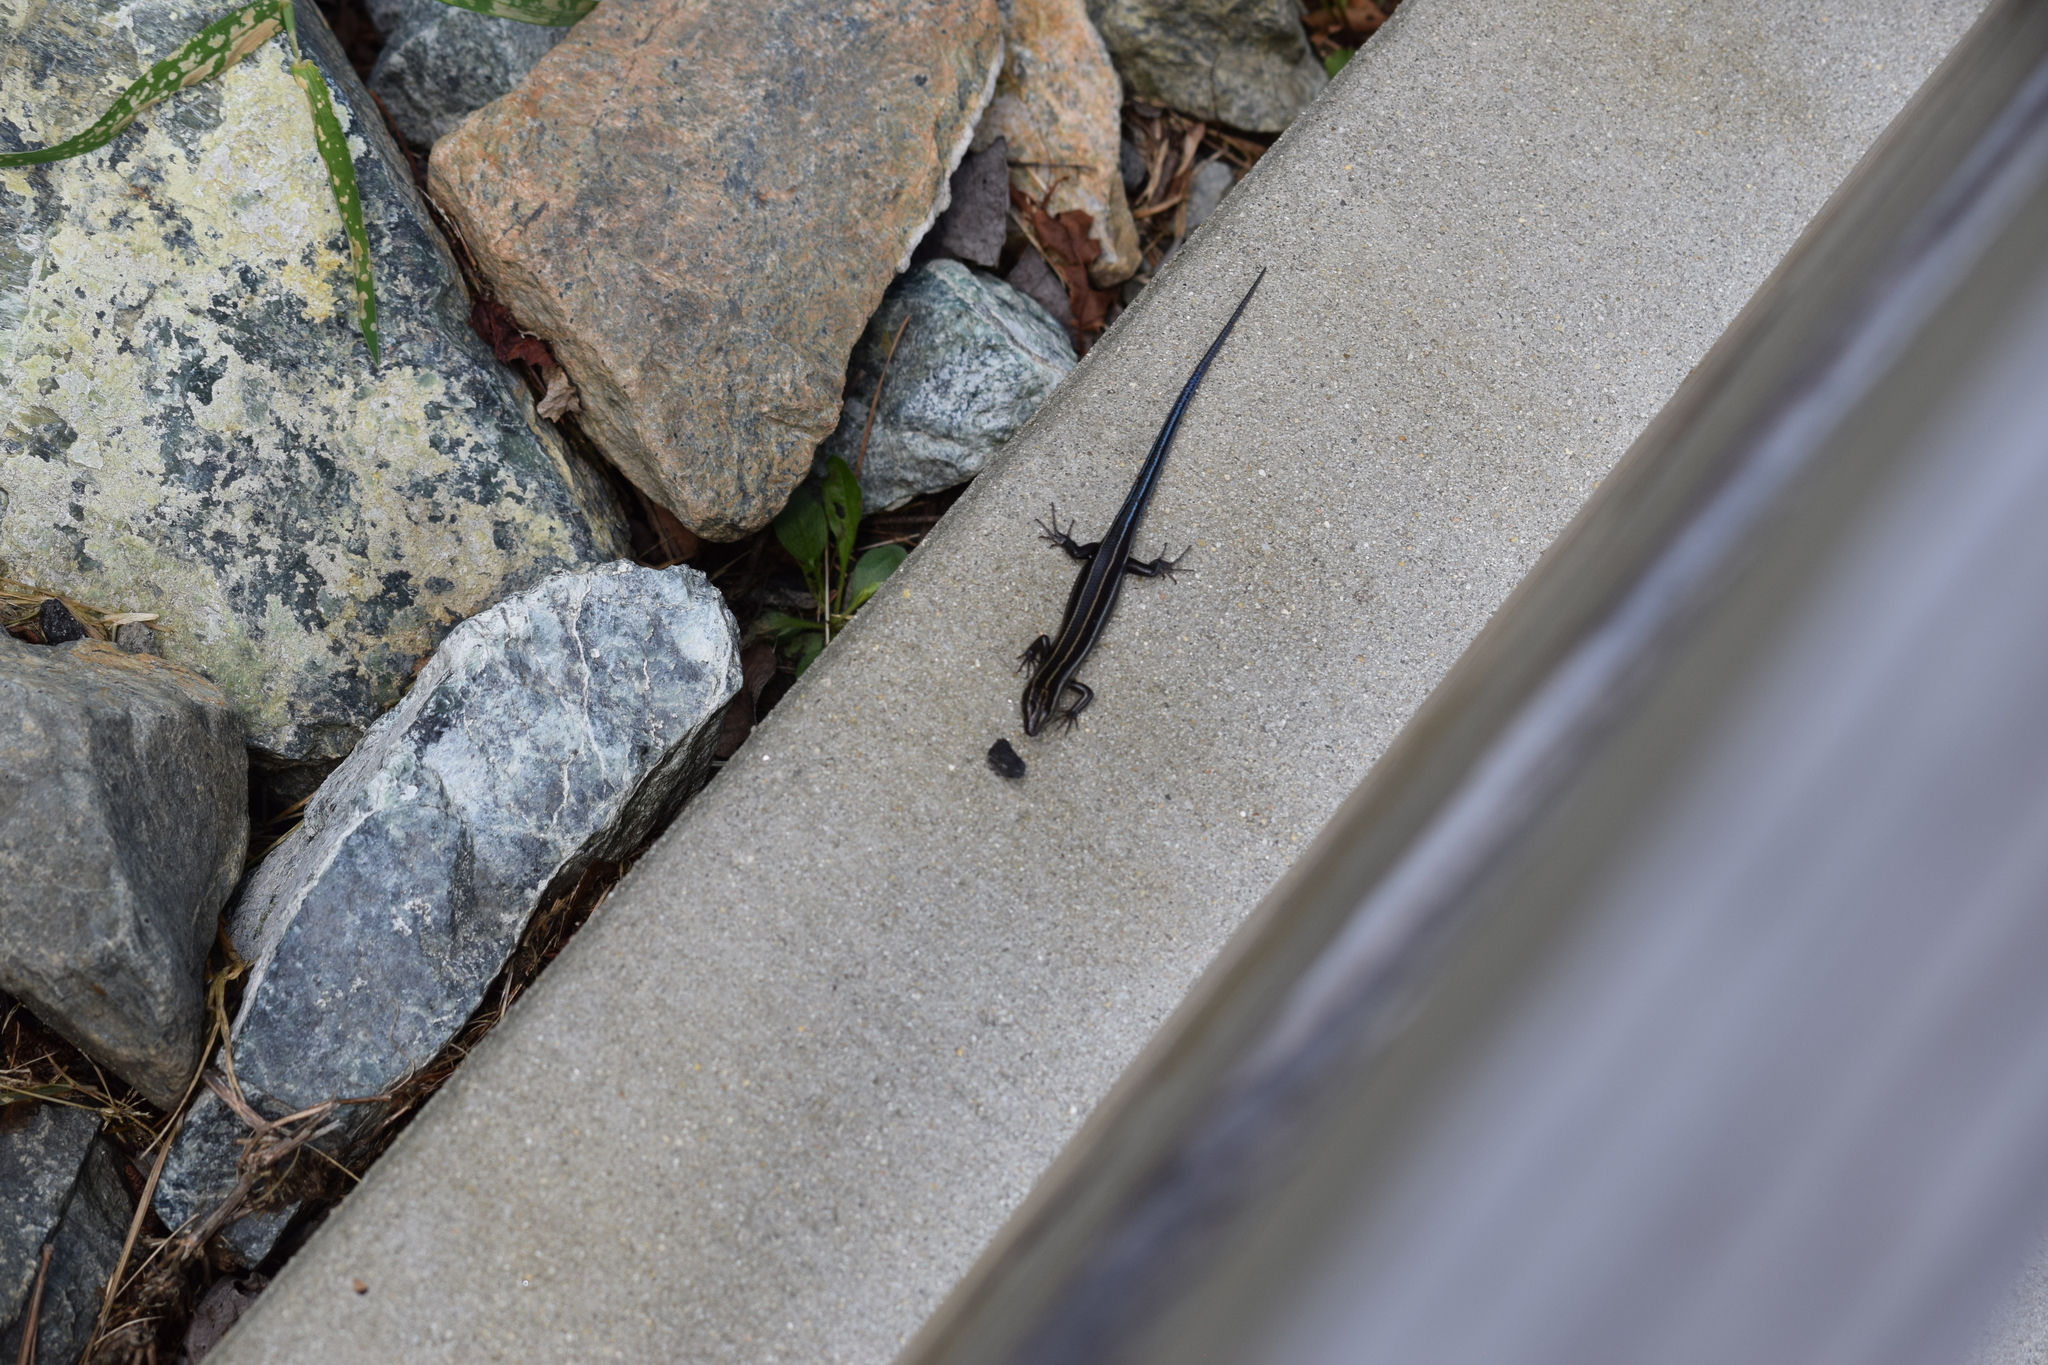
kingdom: Animalia
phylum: Chordata
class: Squamata
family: Scincidae
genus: Plestiodon
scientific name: Plestiodon fasciatus
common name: Five-lined skink
